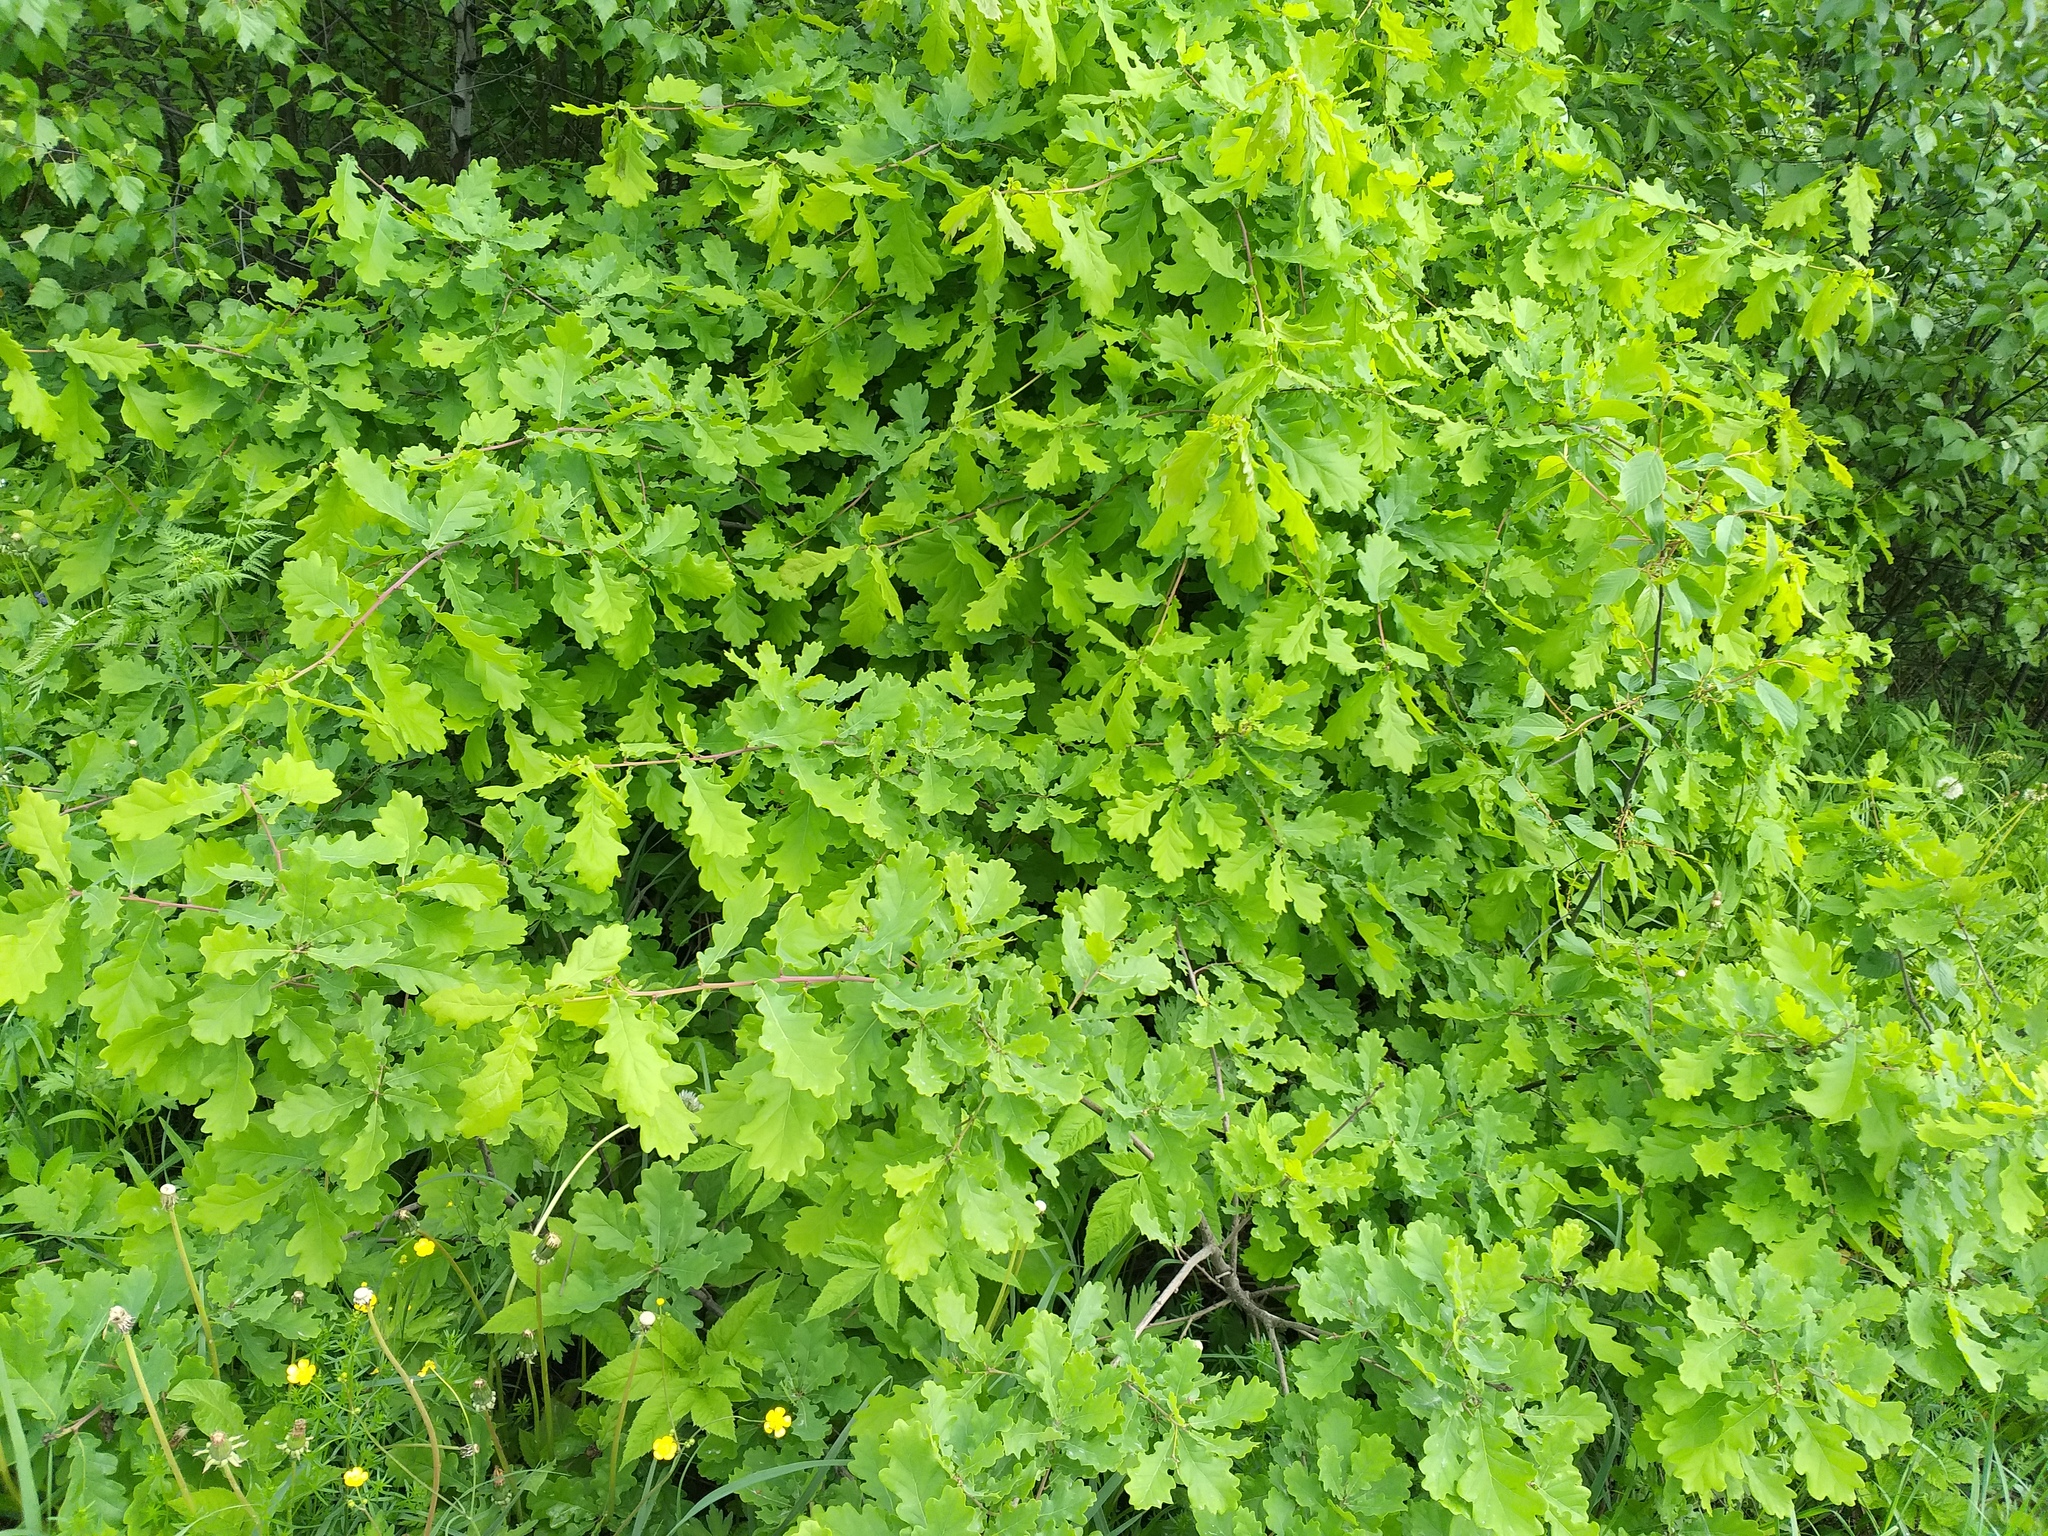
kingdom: Plantae
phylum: Tracheophyta
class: Magnoliopsida
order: Fagales
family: Fagaceae
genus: Quercus
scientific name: Quercus robur
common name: Pedunculate oak
